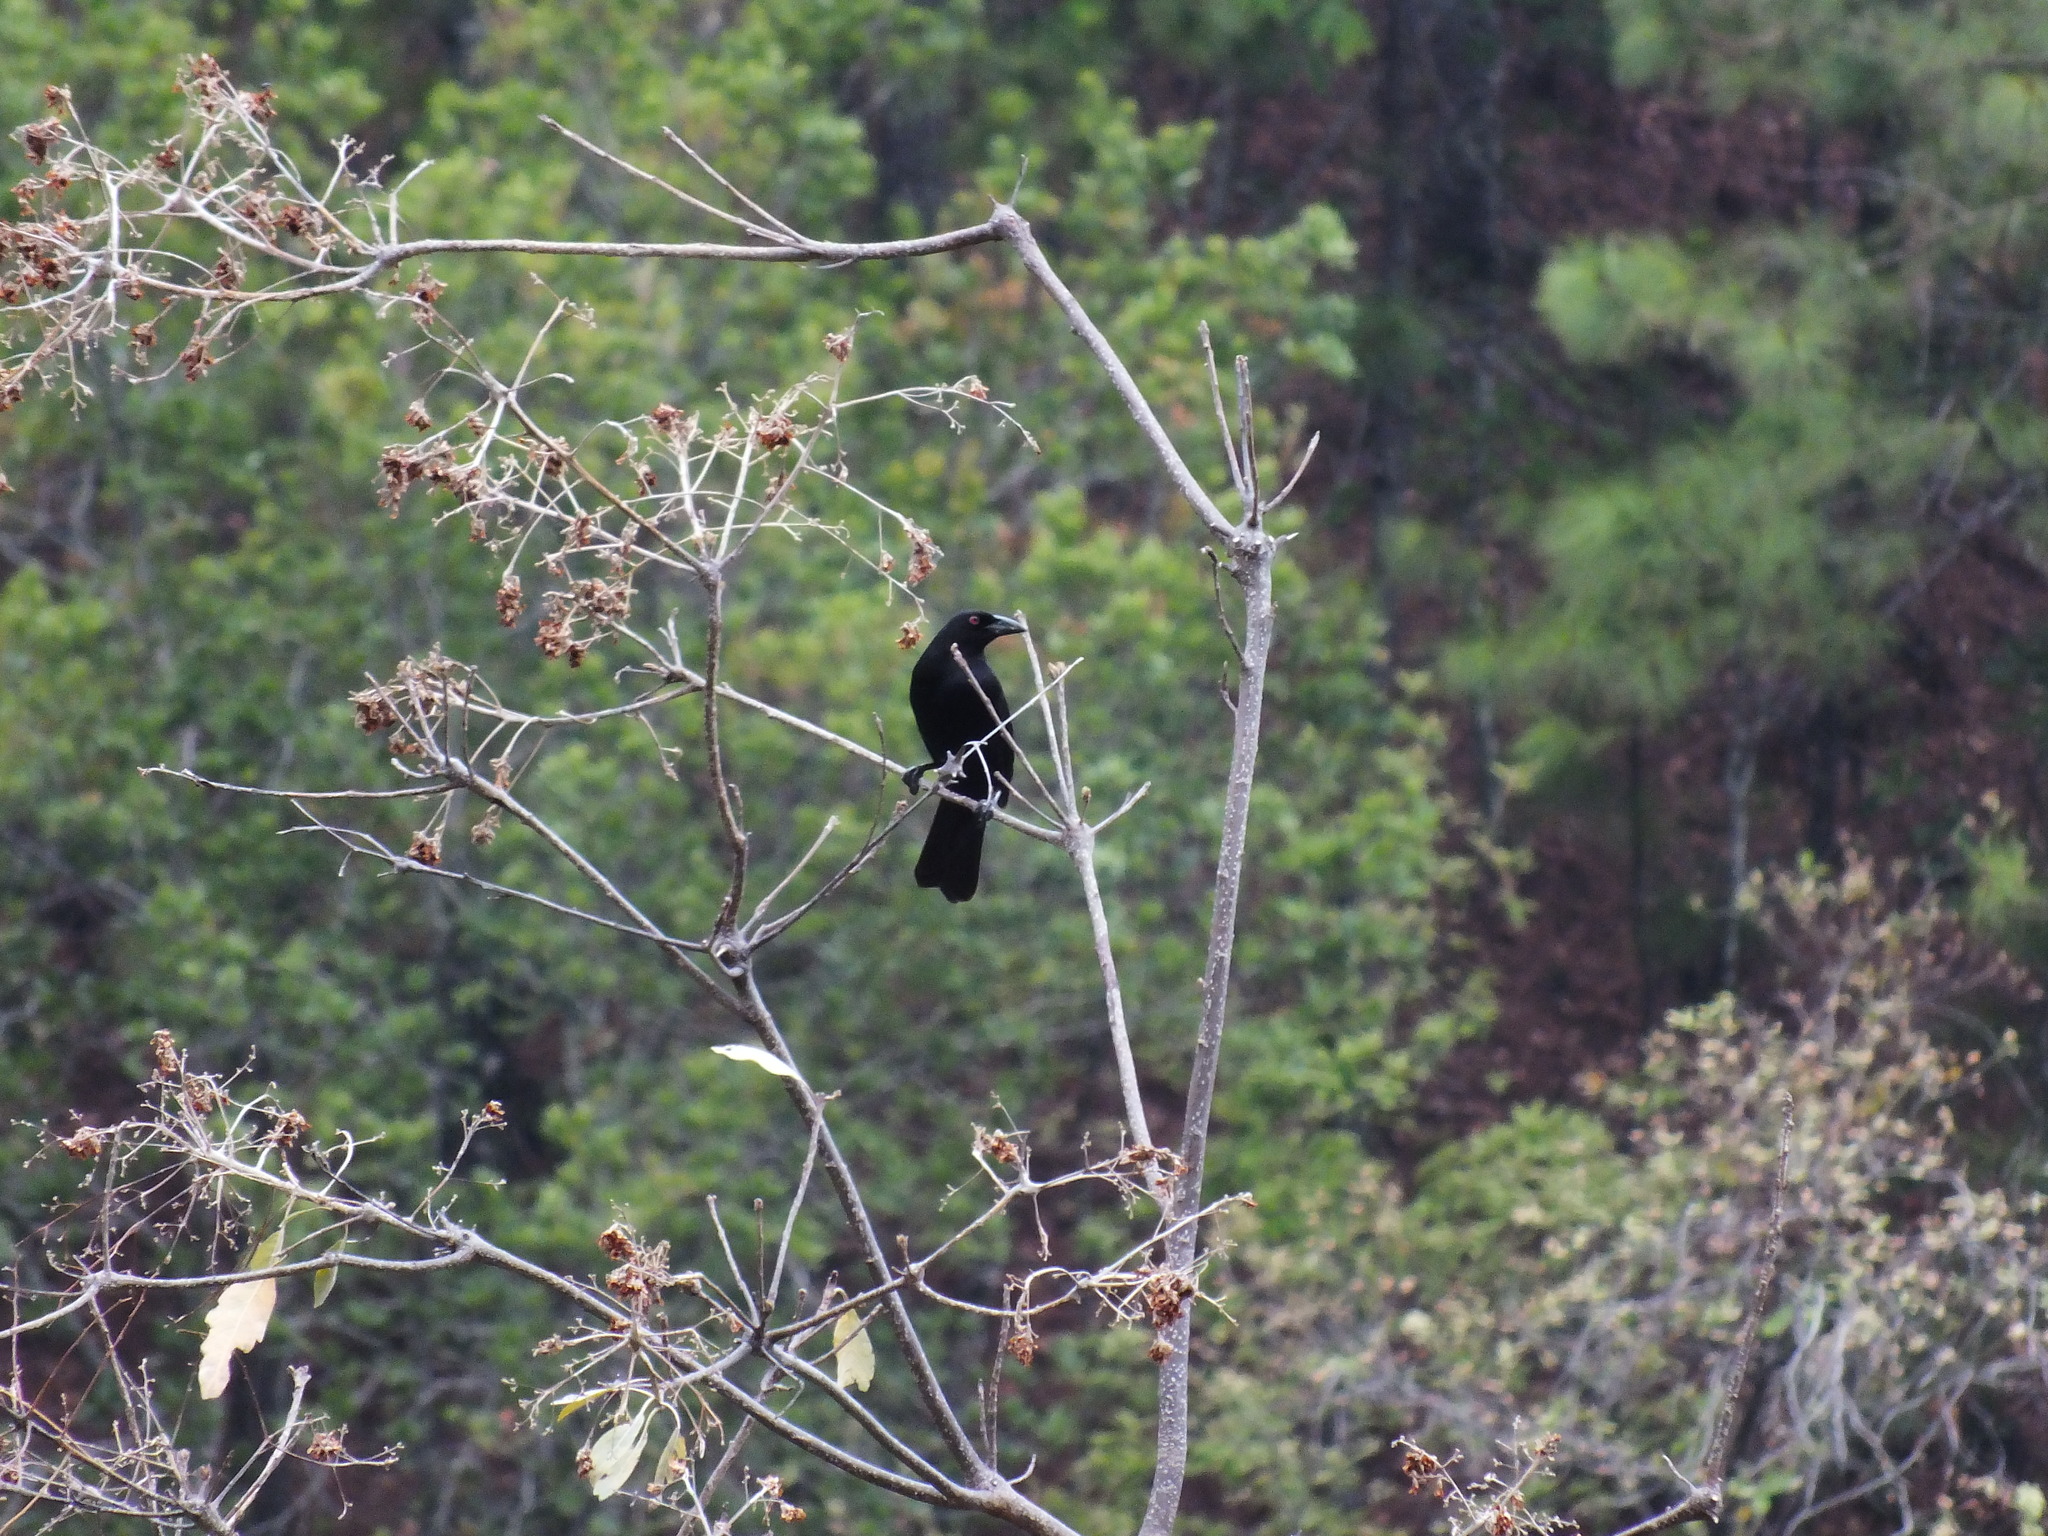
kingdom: Animalia
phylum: Chordata
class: Aves
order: Passeriformes
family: Icteridae
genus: Molothrus
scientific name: Molothrus oryzivorus
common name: Giant cowbird
